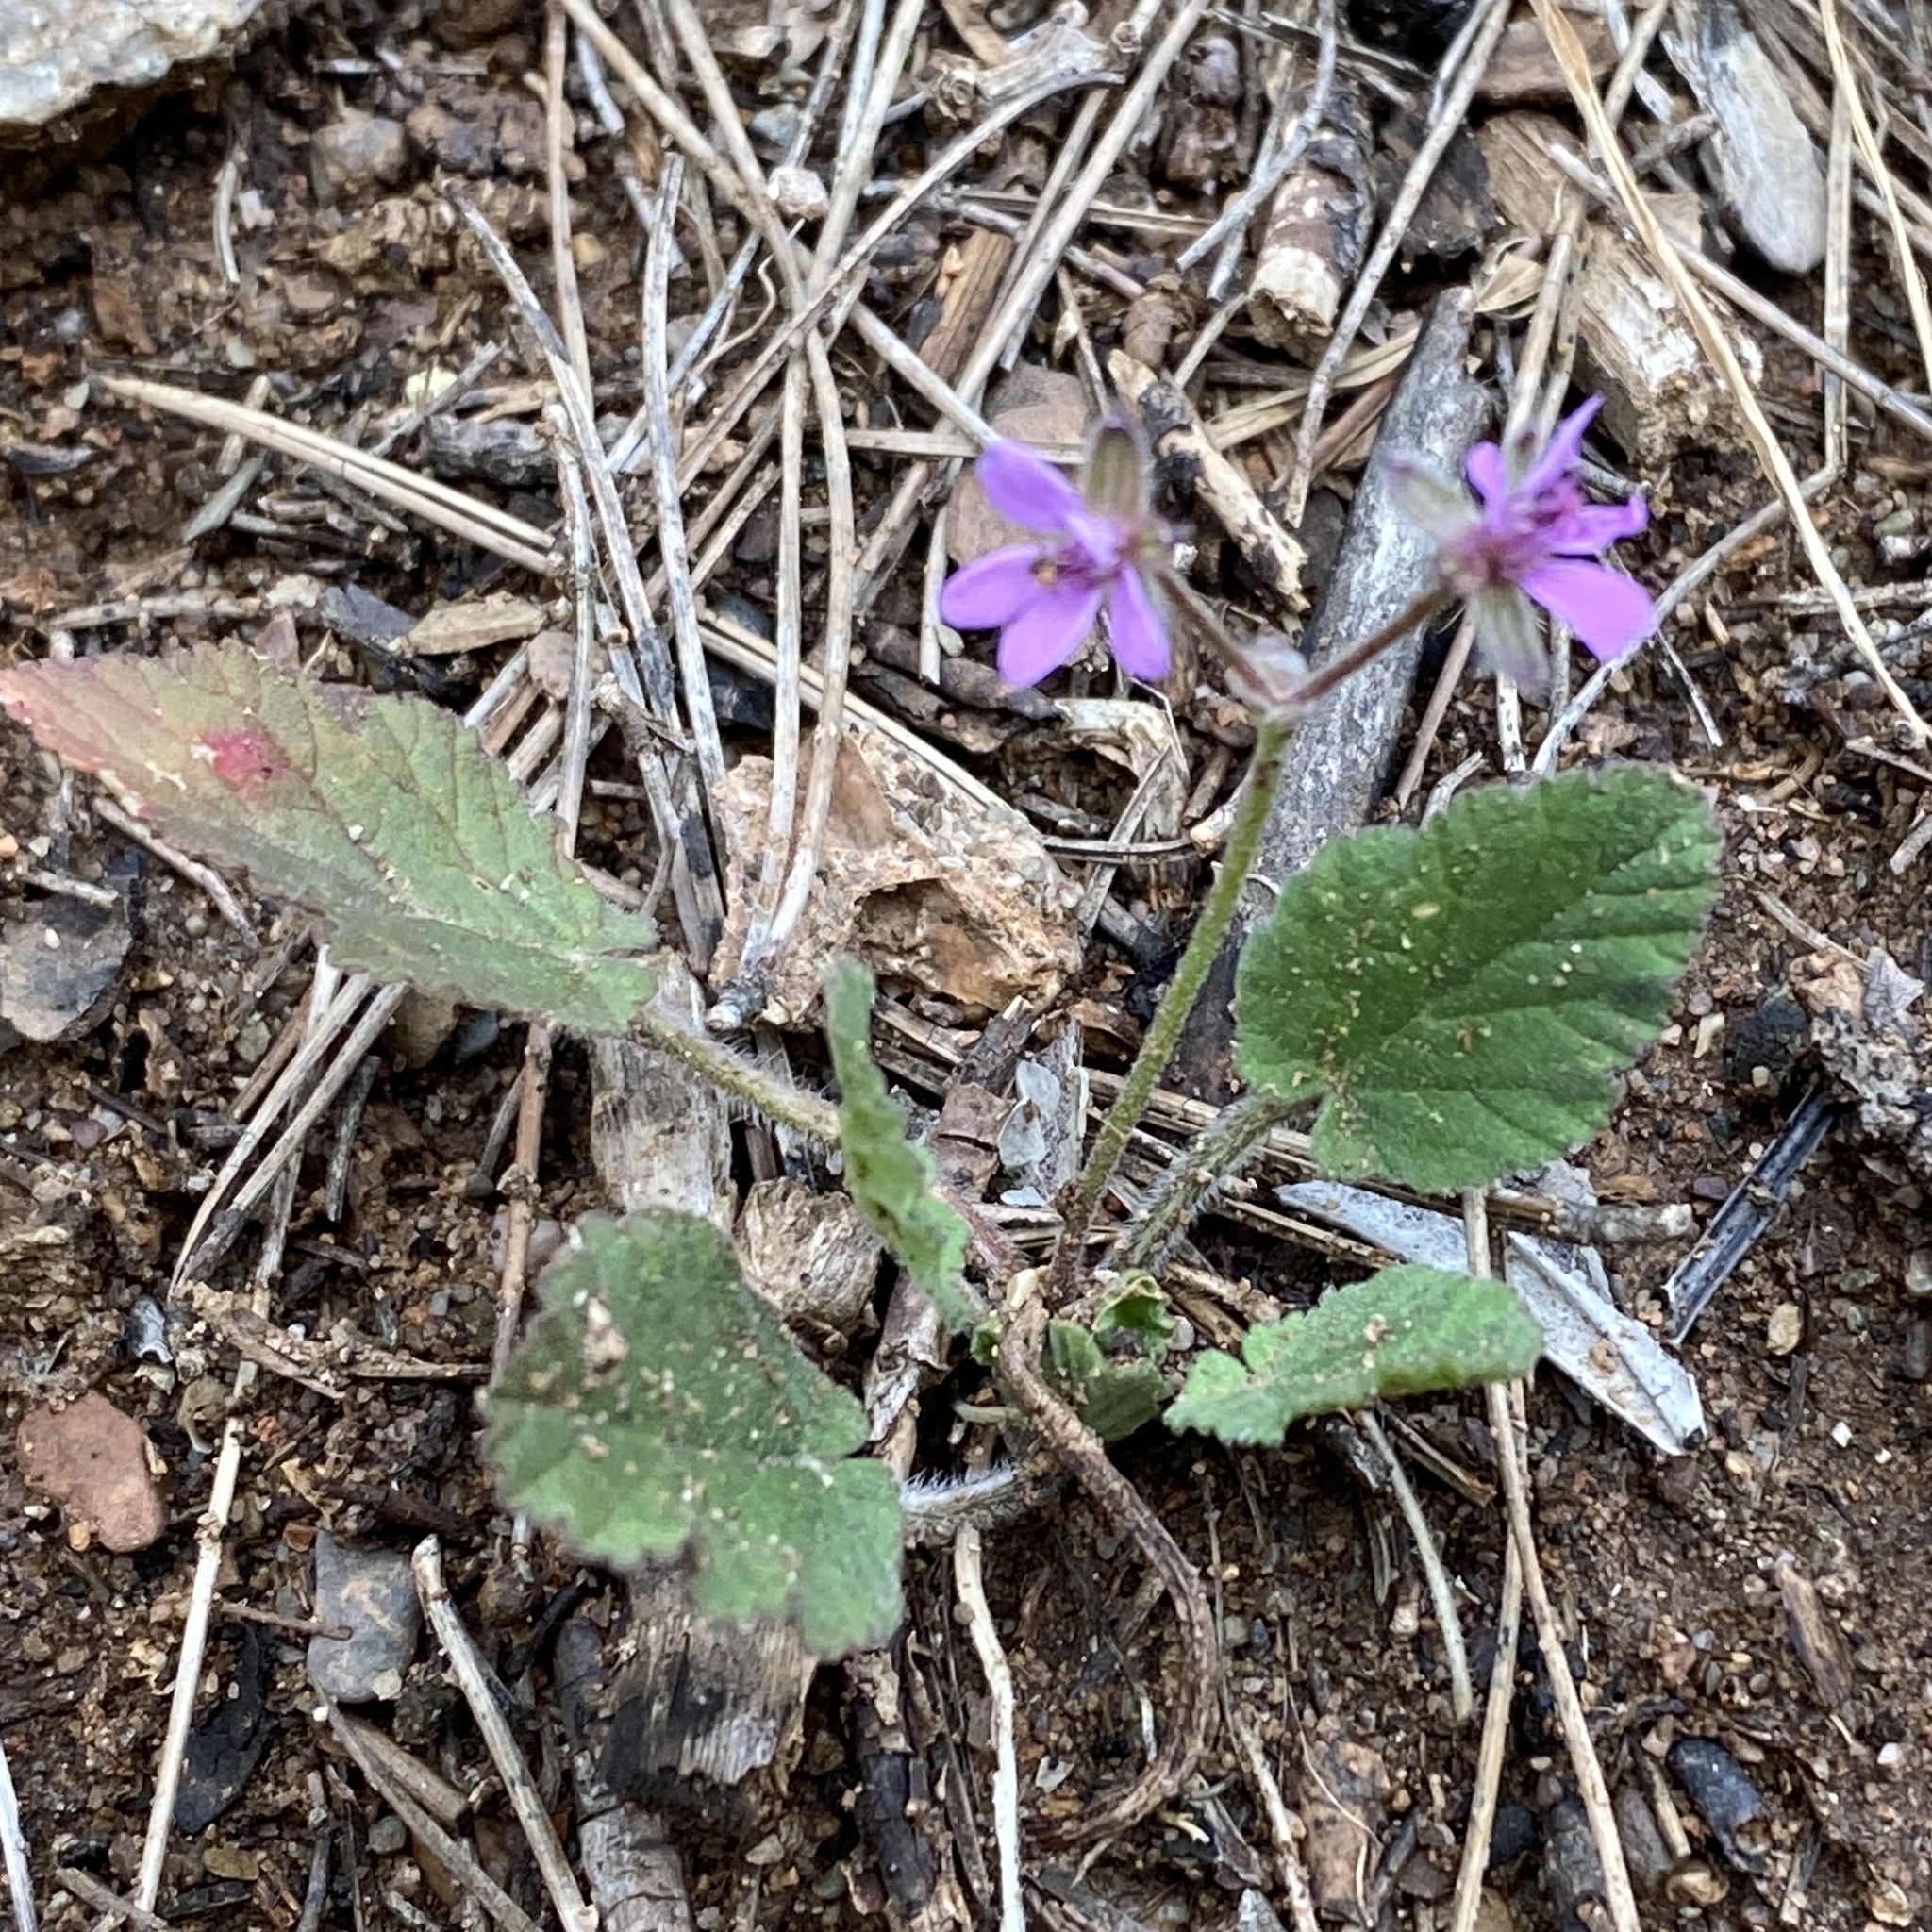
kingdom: Plantae
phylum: Tracheophyta
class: Magnoliopsida
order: Geraniales
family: Geraniaceae
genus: Erodium
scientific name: Erodium malacoides
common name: Soft stork's-bill
